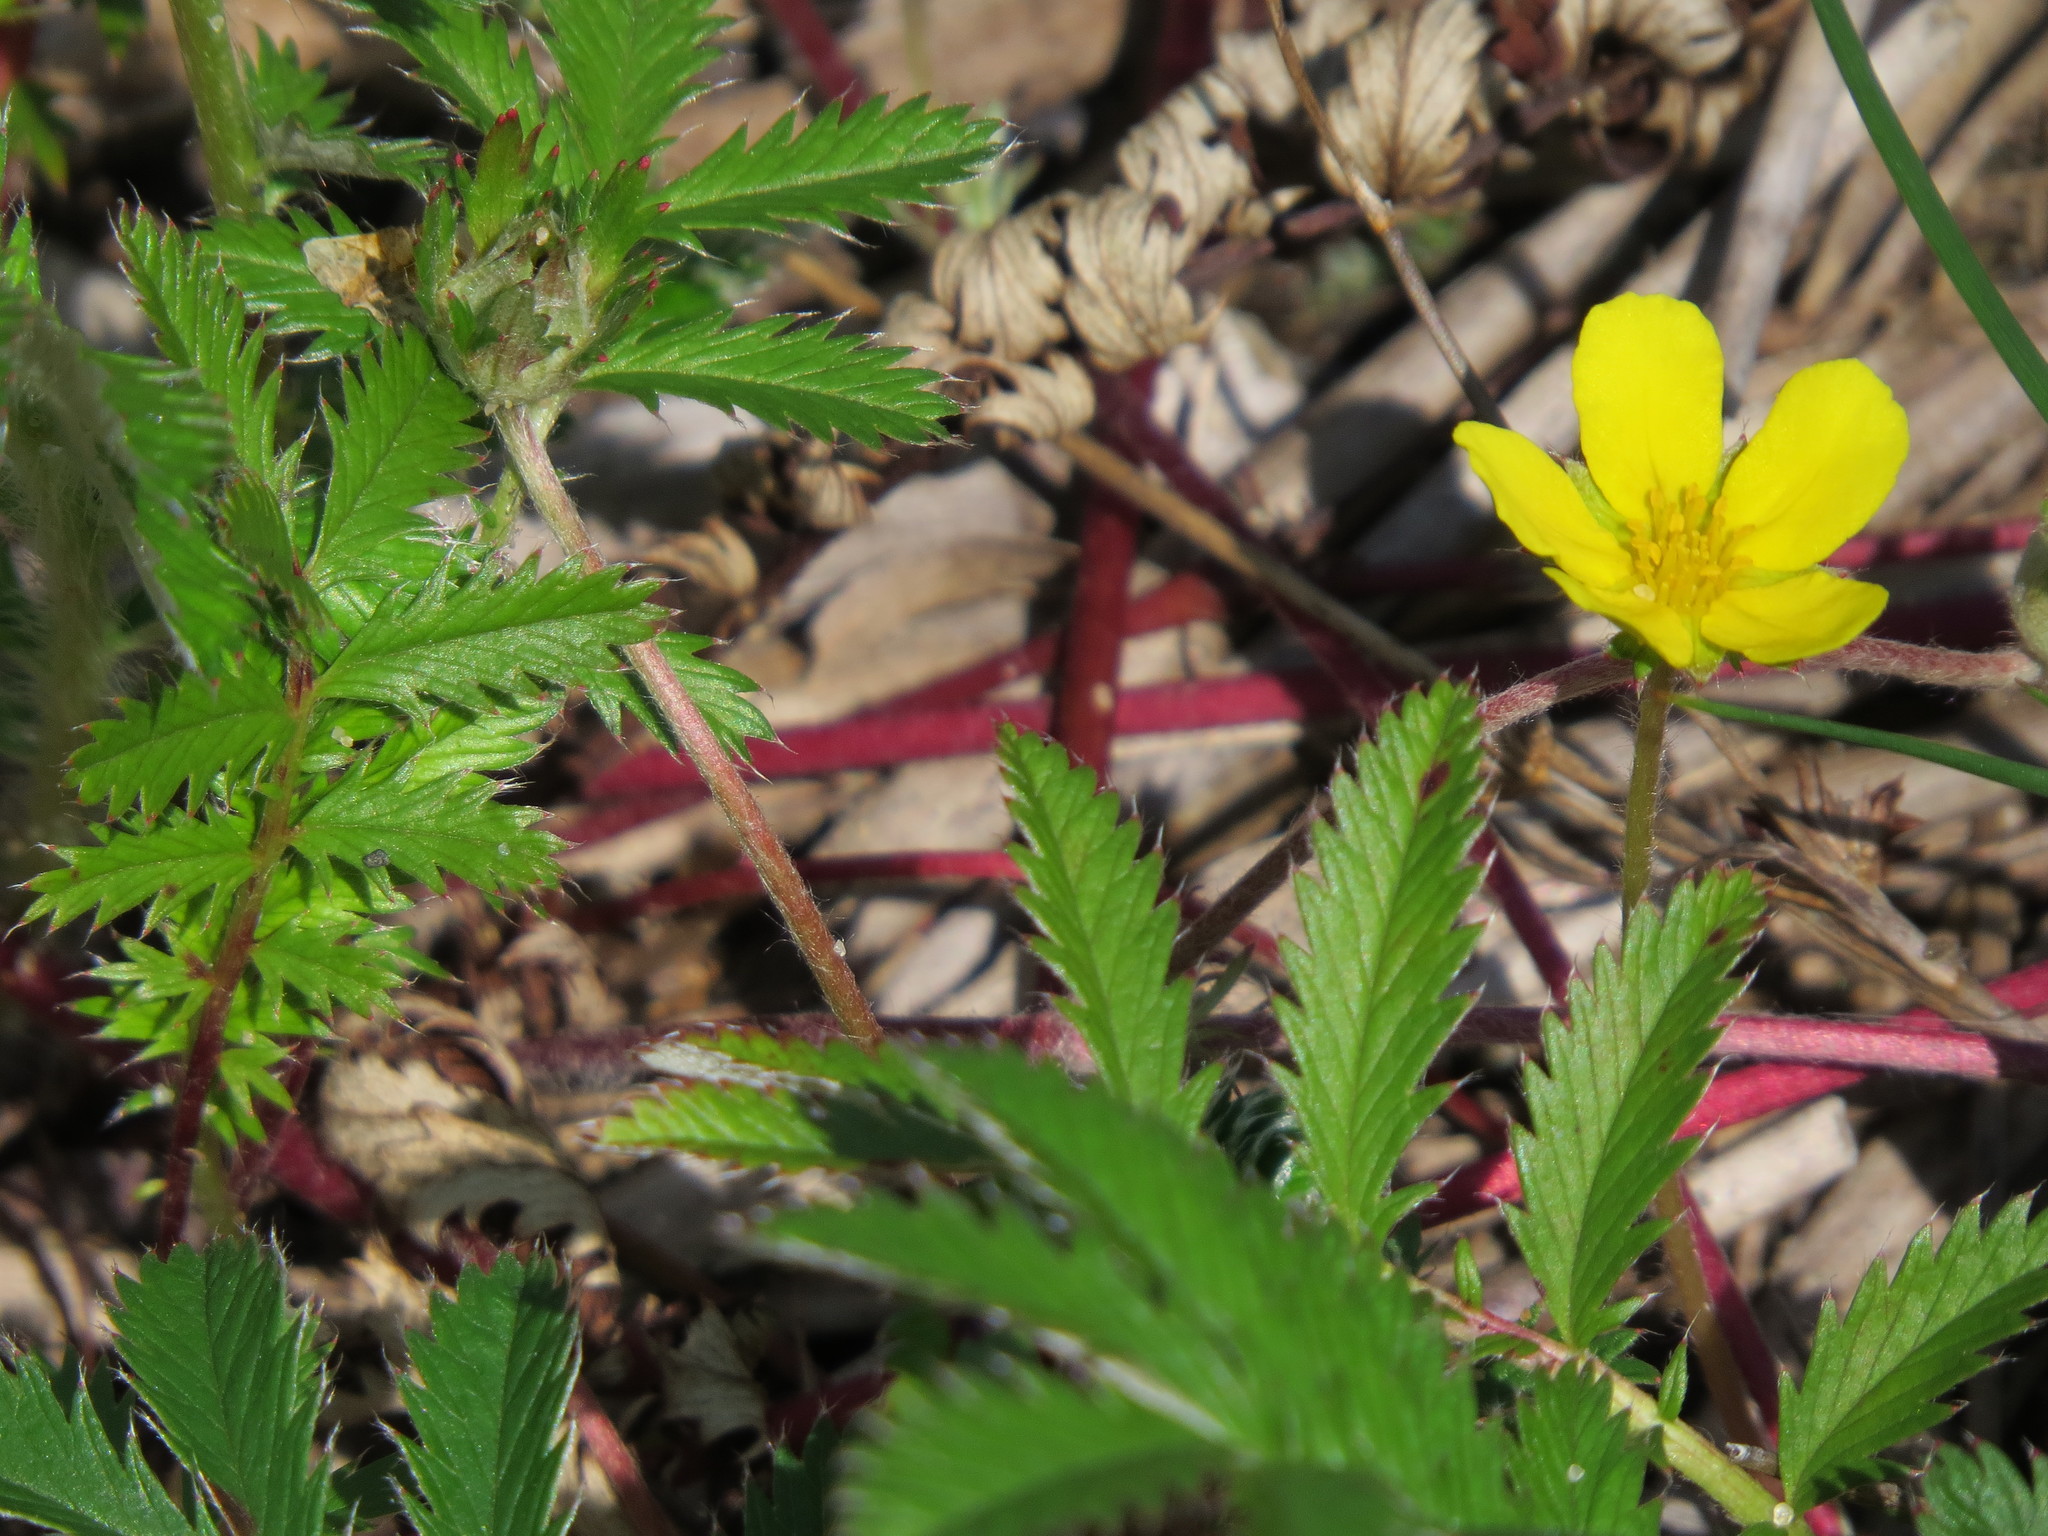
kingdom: Plantae
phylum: Tracheophyta
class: Magnoliopsida
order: Rosales
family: Rosaceae
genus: Argentina
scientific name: Argentina anserina
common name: Common silverweed
